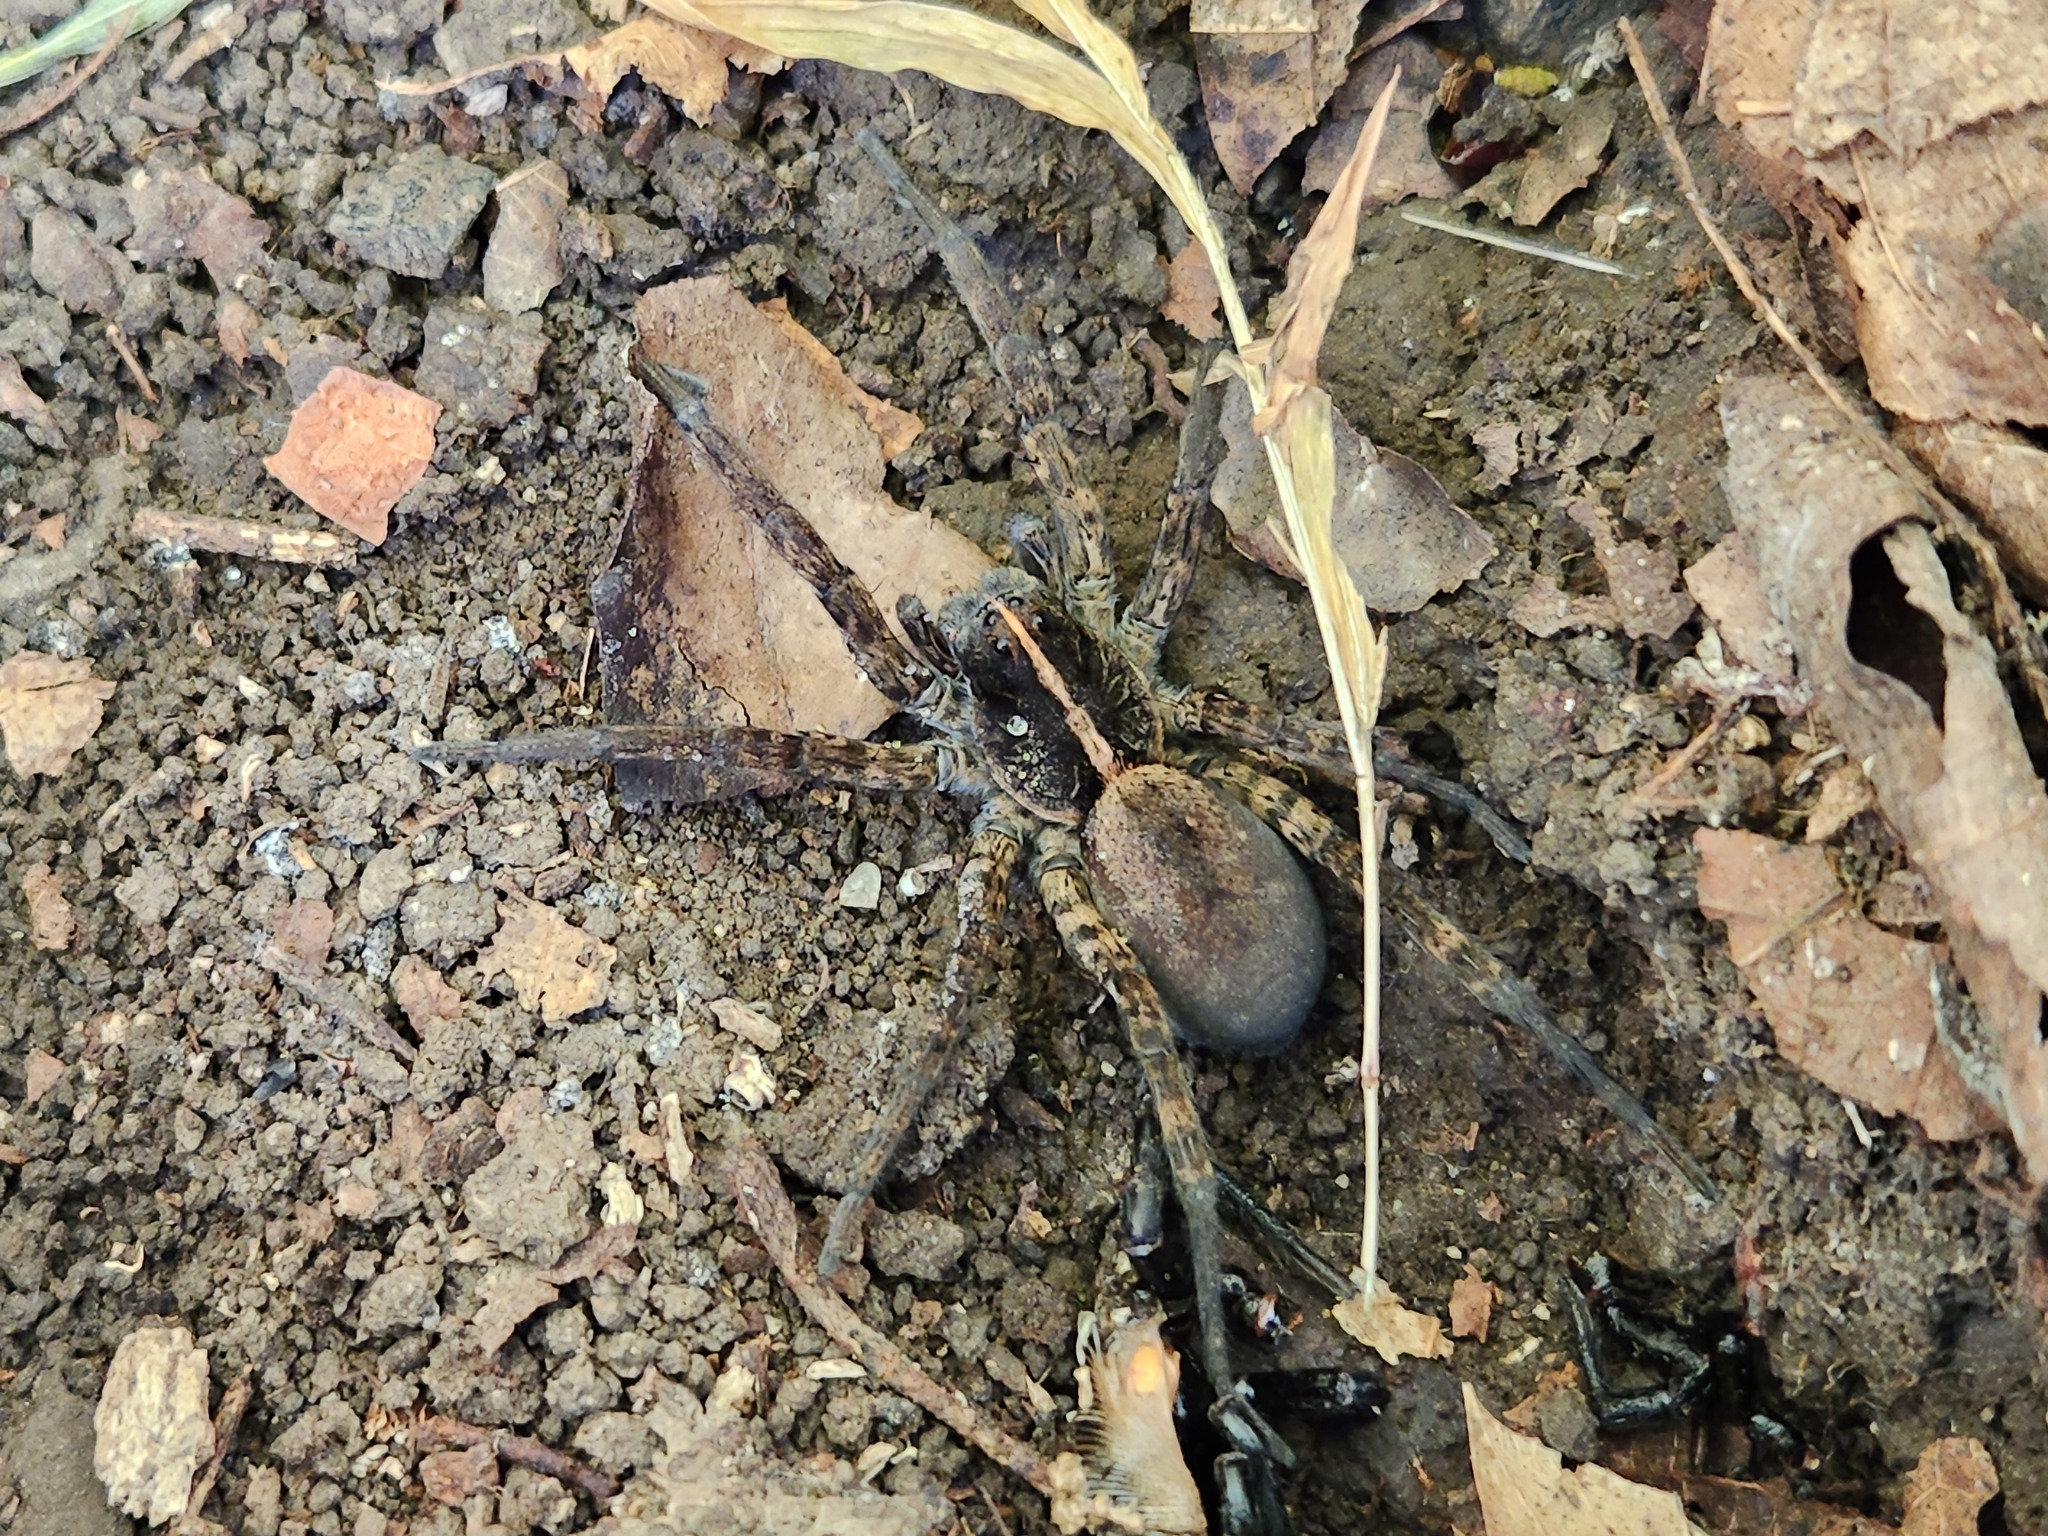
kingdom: Animalia
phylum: Arthropoda
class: Arachnida
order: Araneae
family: Lycosidae
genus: Tigrosa
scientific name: Tigrosa georgicola
